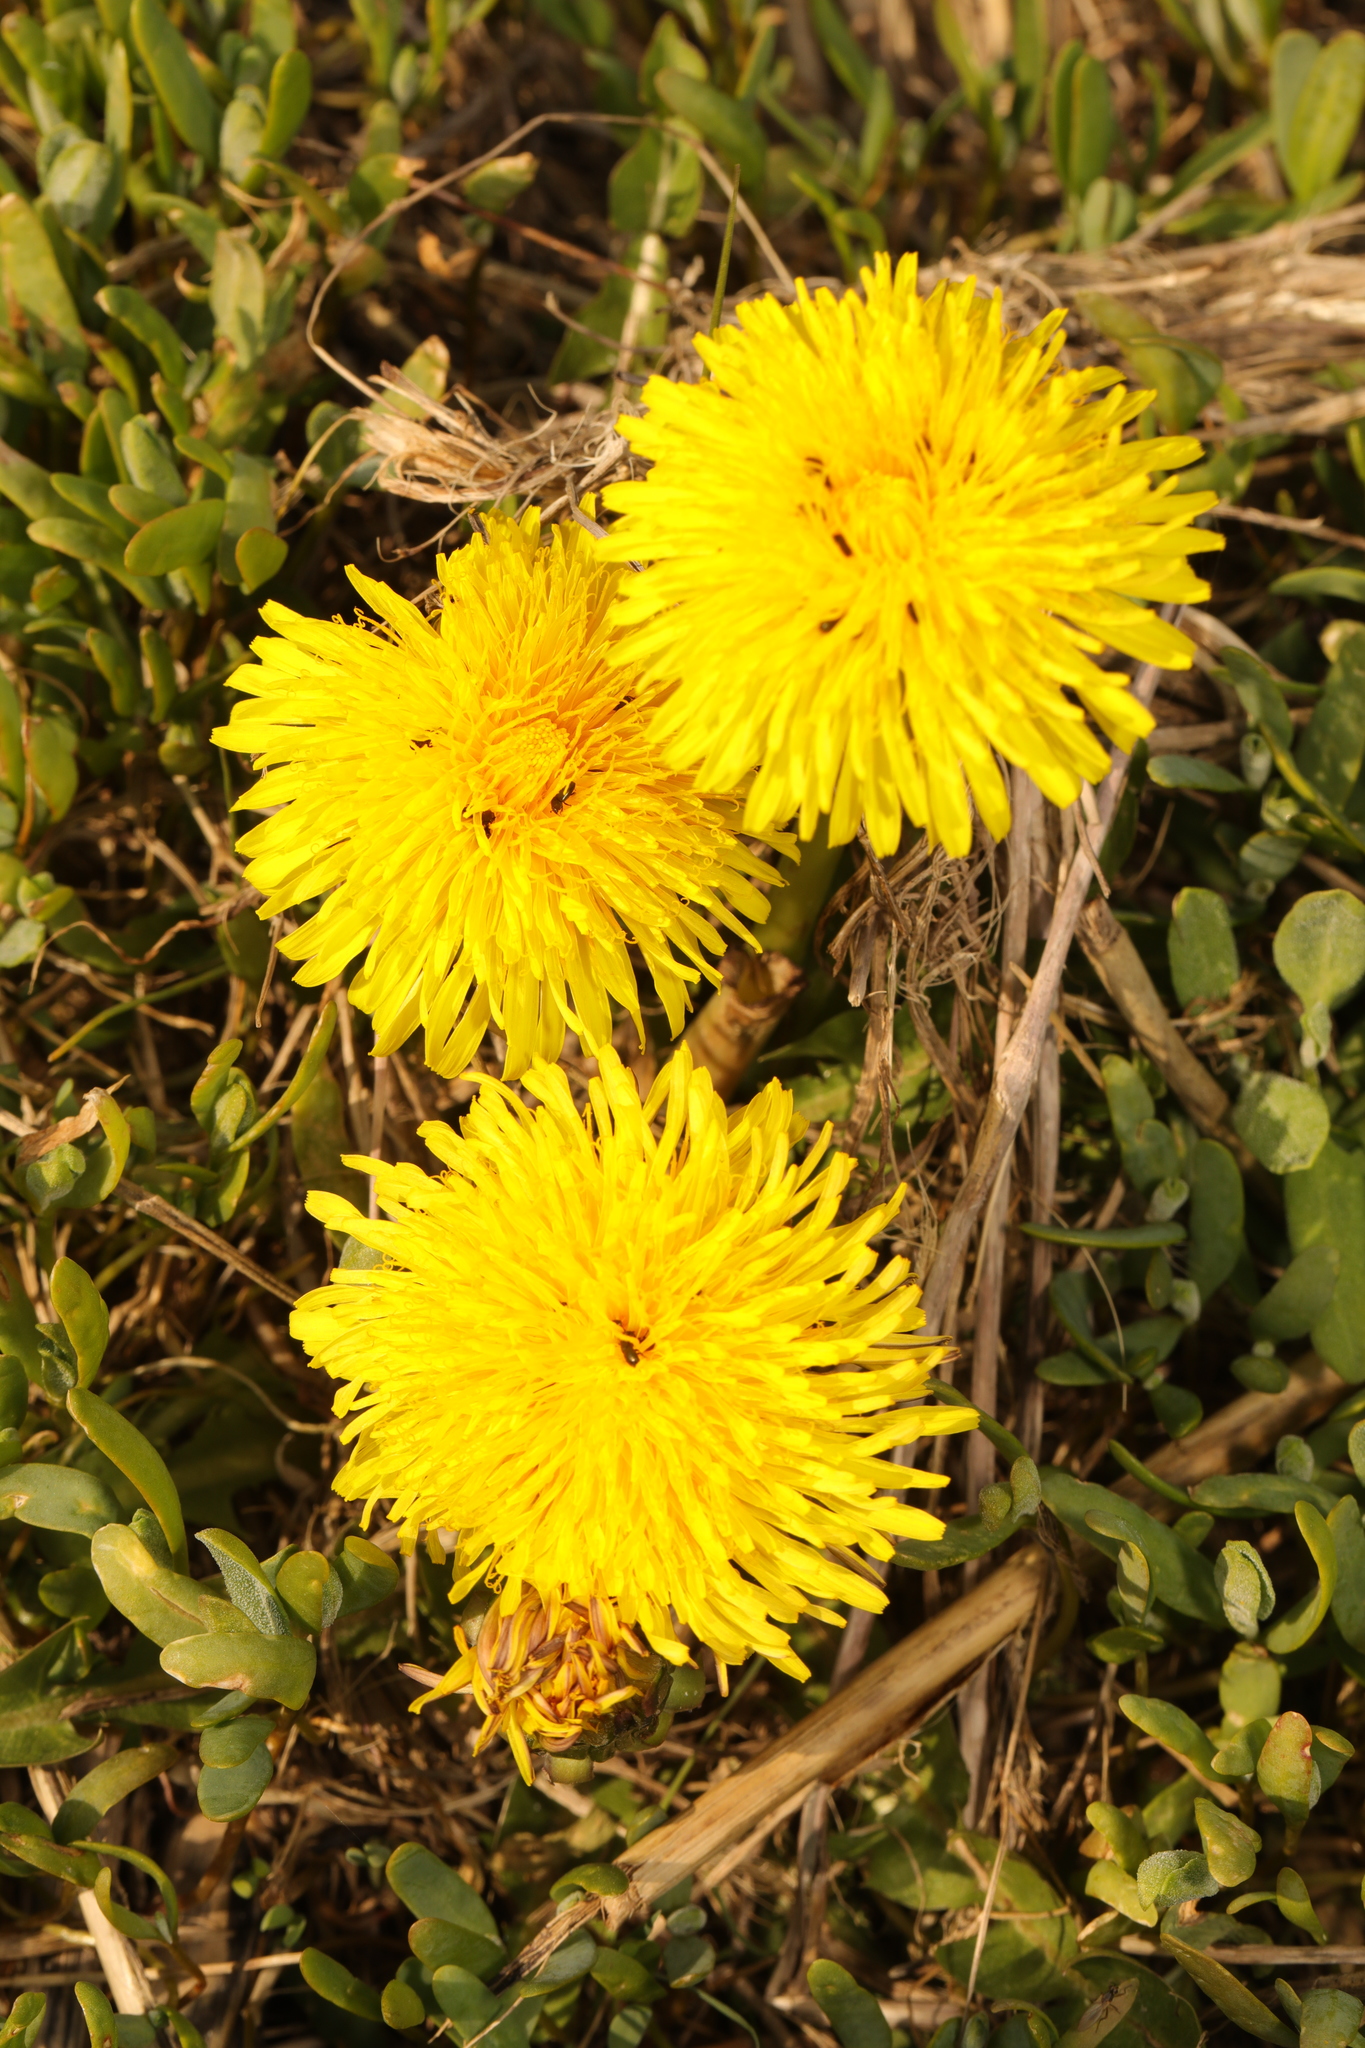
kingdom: Plantae
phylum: Tracheophyta
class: Magnoliopsida
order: Asterales
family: Asteraceae
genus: Taraxacum
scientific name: Taraxacum officinale
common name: Common dandelion
